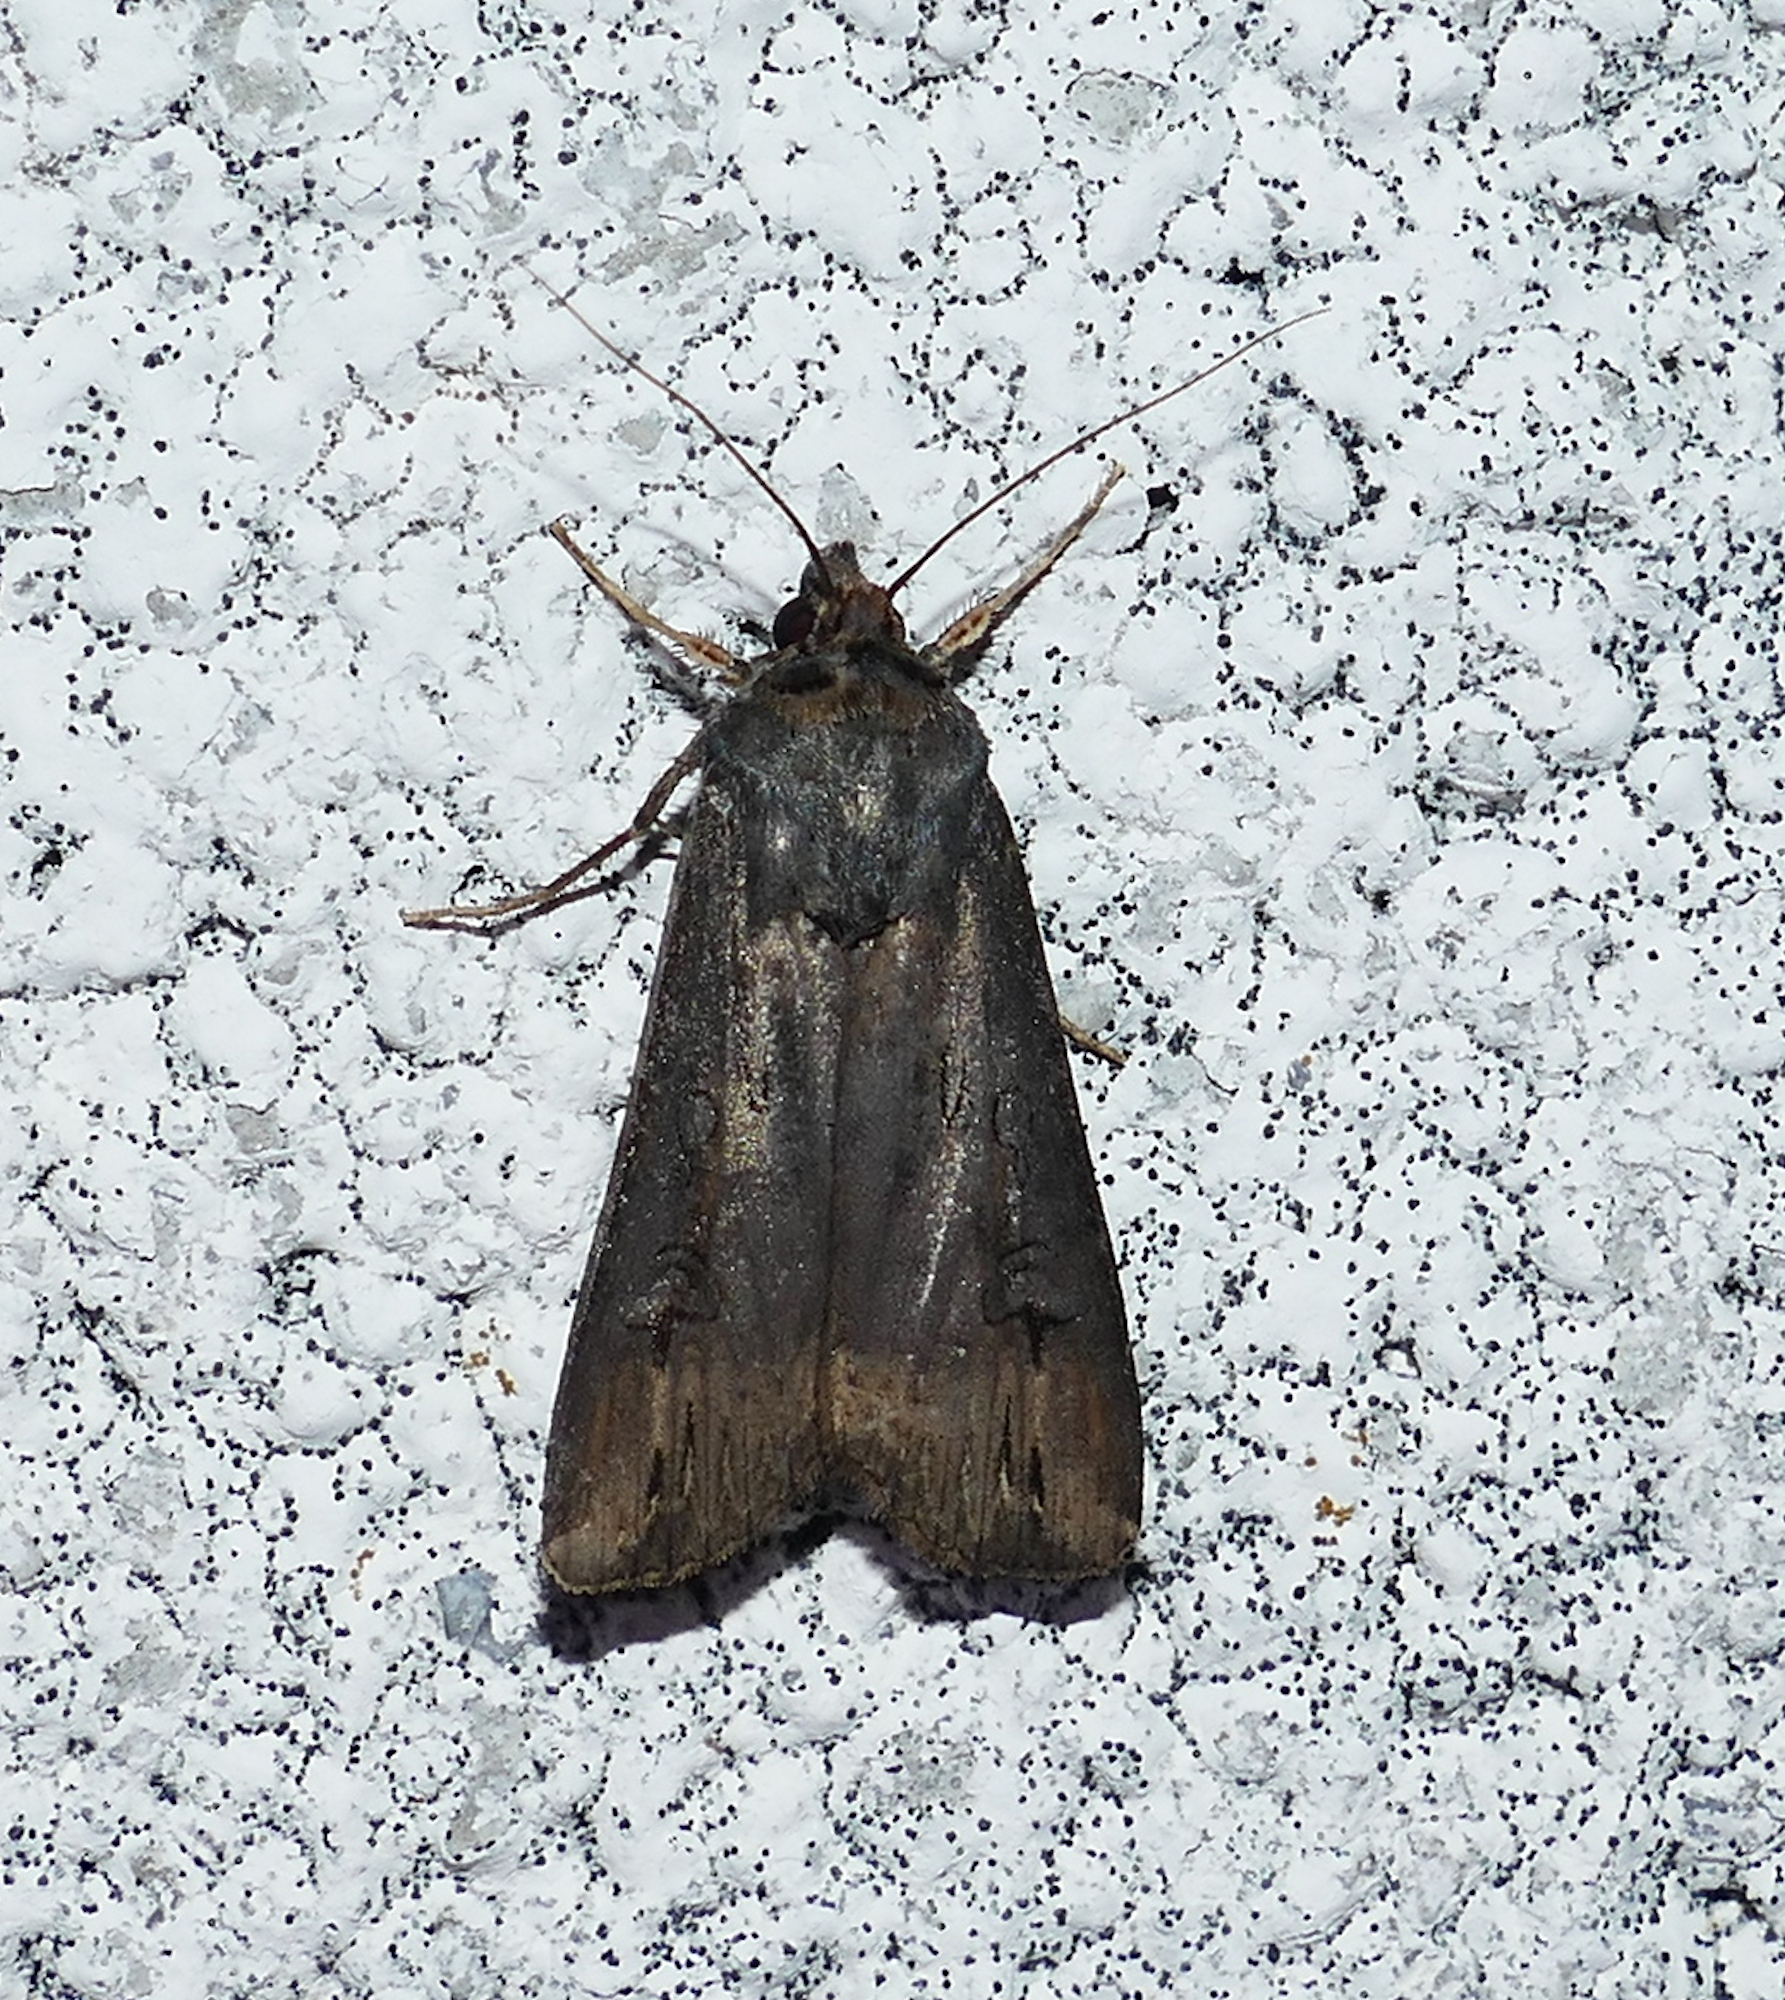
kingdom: Animalia
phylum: Arthropoda
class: Insecta
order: Lepidoptera
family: Noctuidae
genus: Agrotis
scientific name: Agrotis ipsilon
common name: Dark sword-grass
